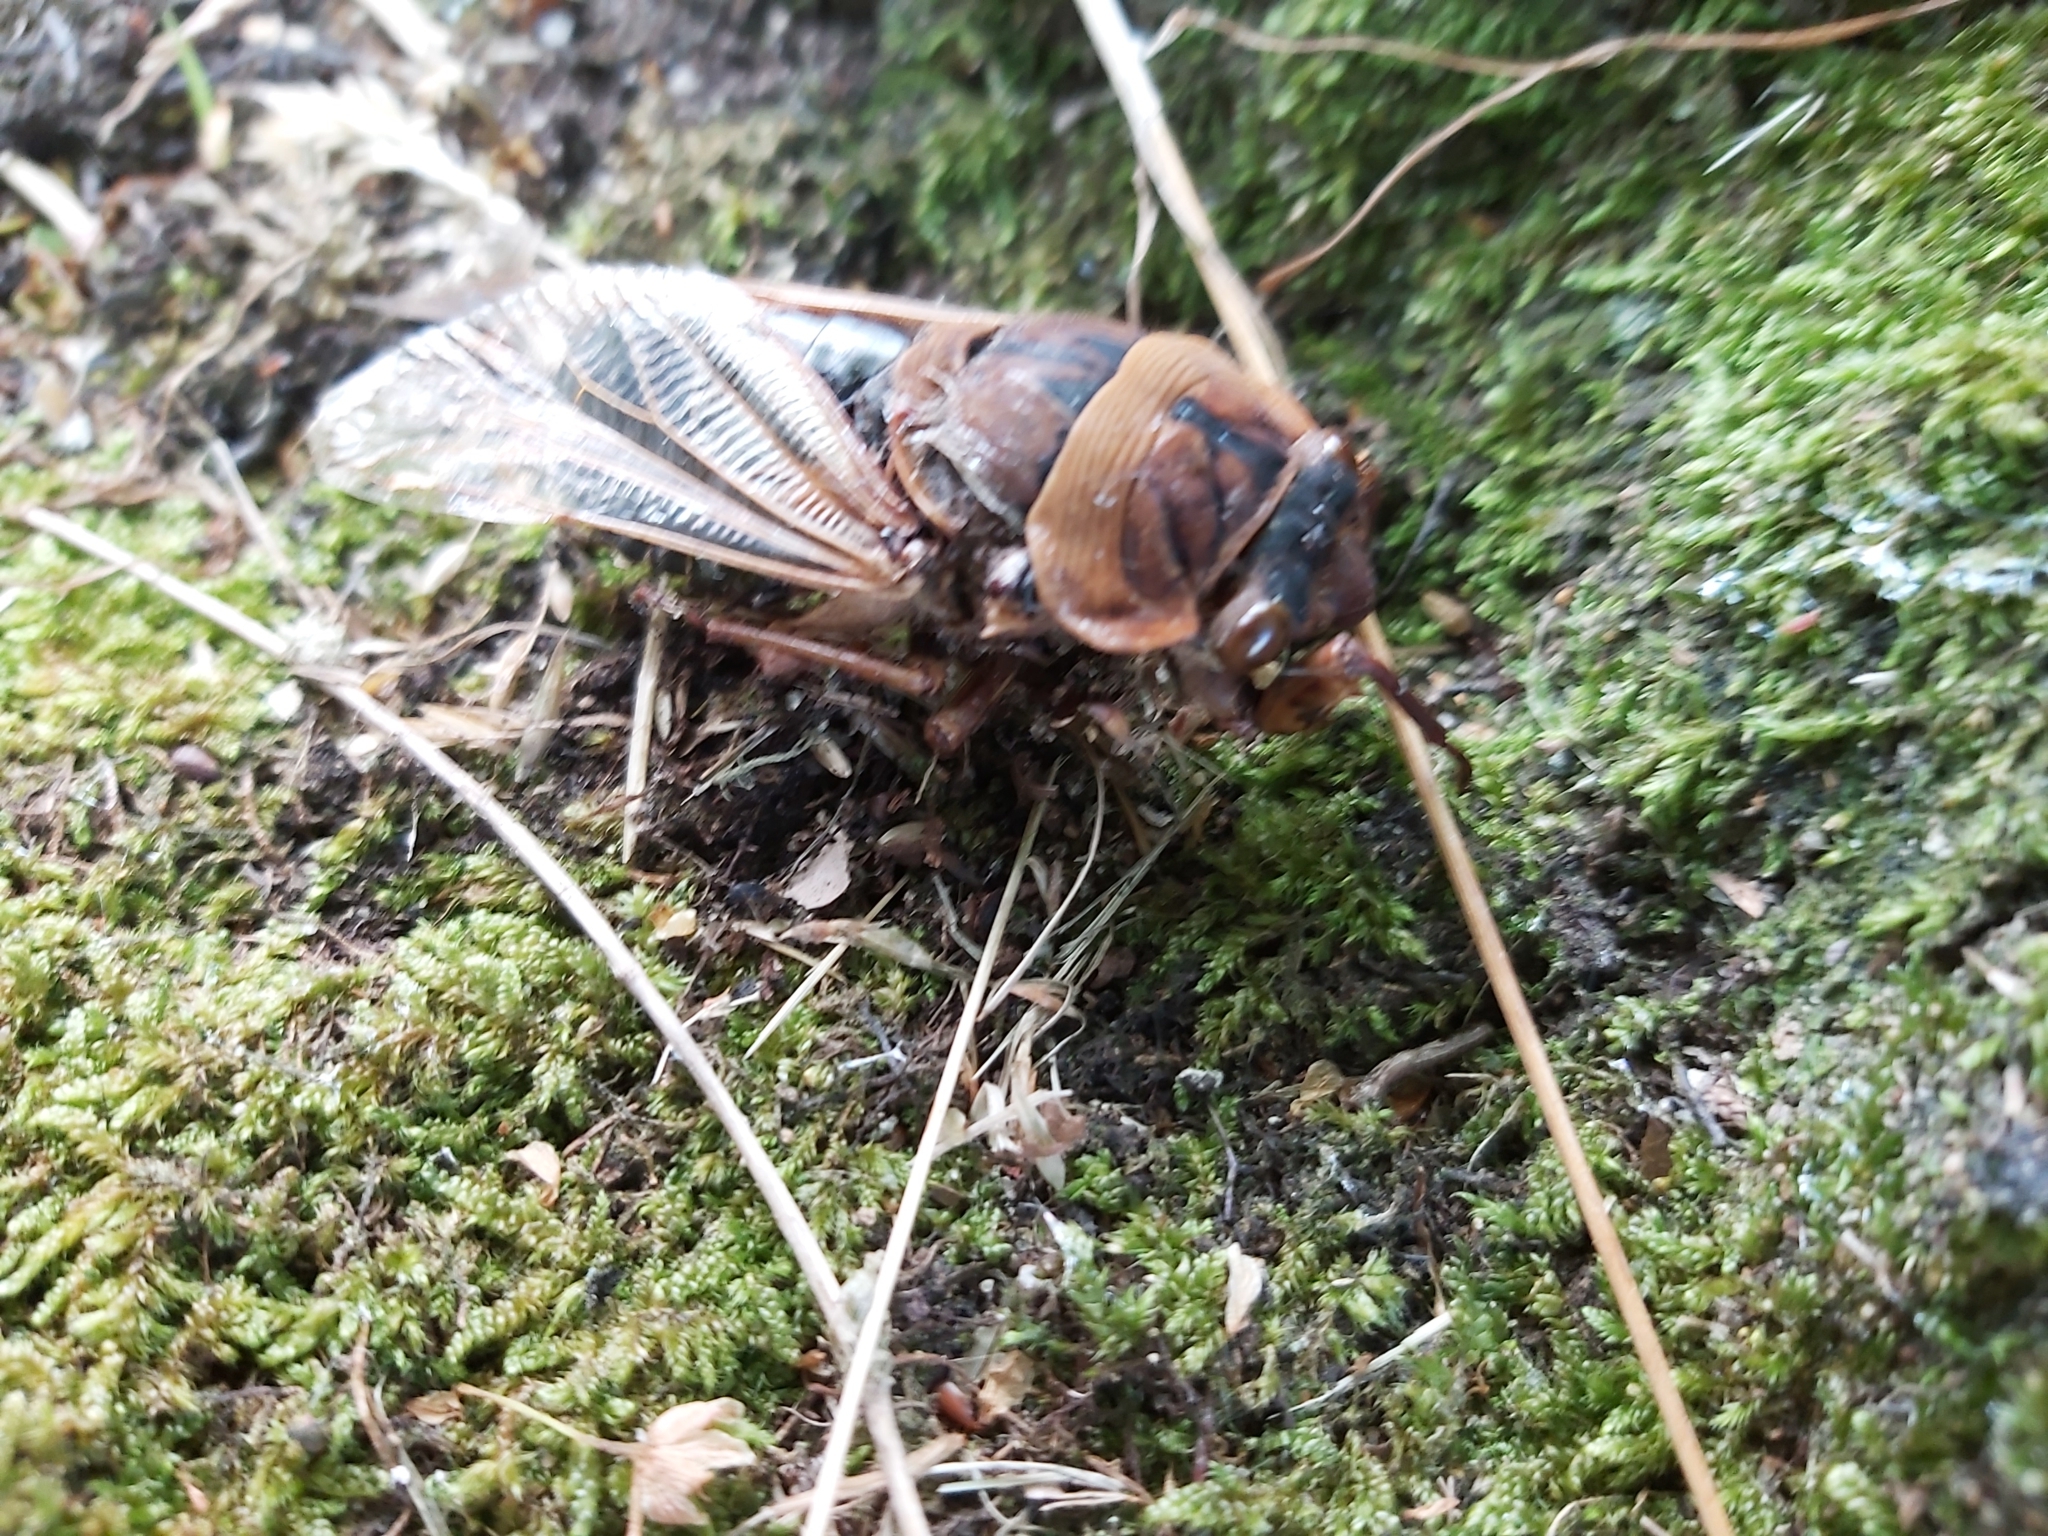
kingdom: Animalia
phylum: Arthropoda
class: Insecta
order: Hemiptera
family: Cicadidae
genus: Cyclochila
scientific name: Cyclochila australasiae
